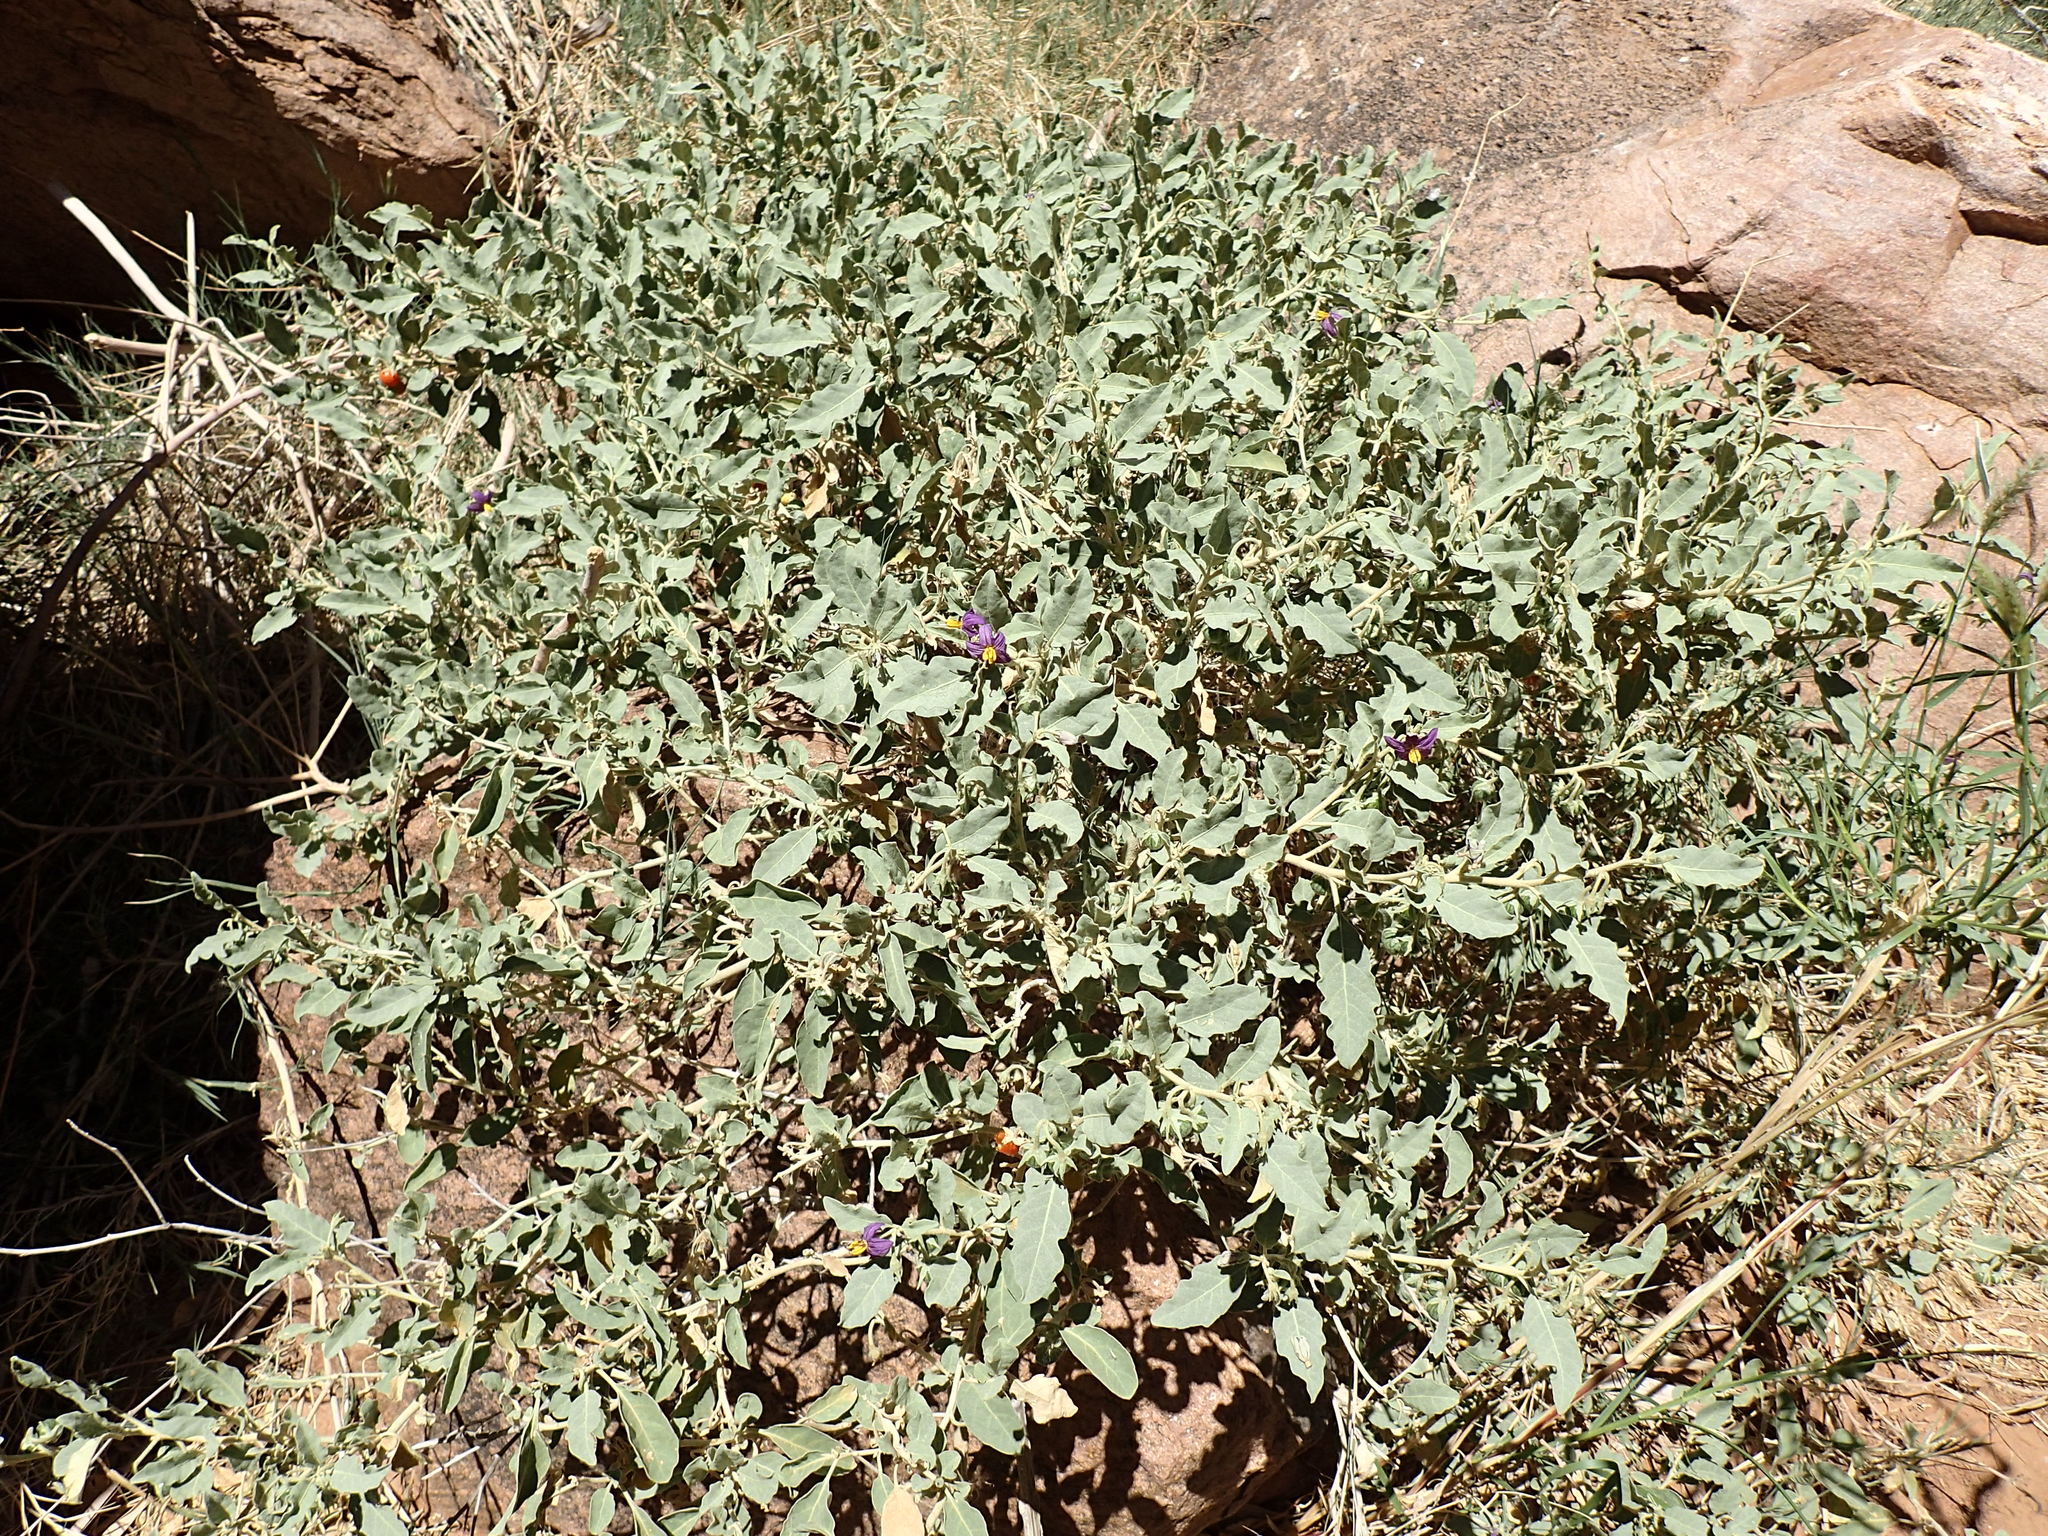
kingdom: Plantae
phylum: Tracheophyta
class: Magnoliopsida
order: Solanales
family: Solanaceae
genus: Solanum
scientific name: Solanum burchellii
